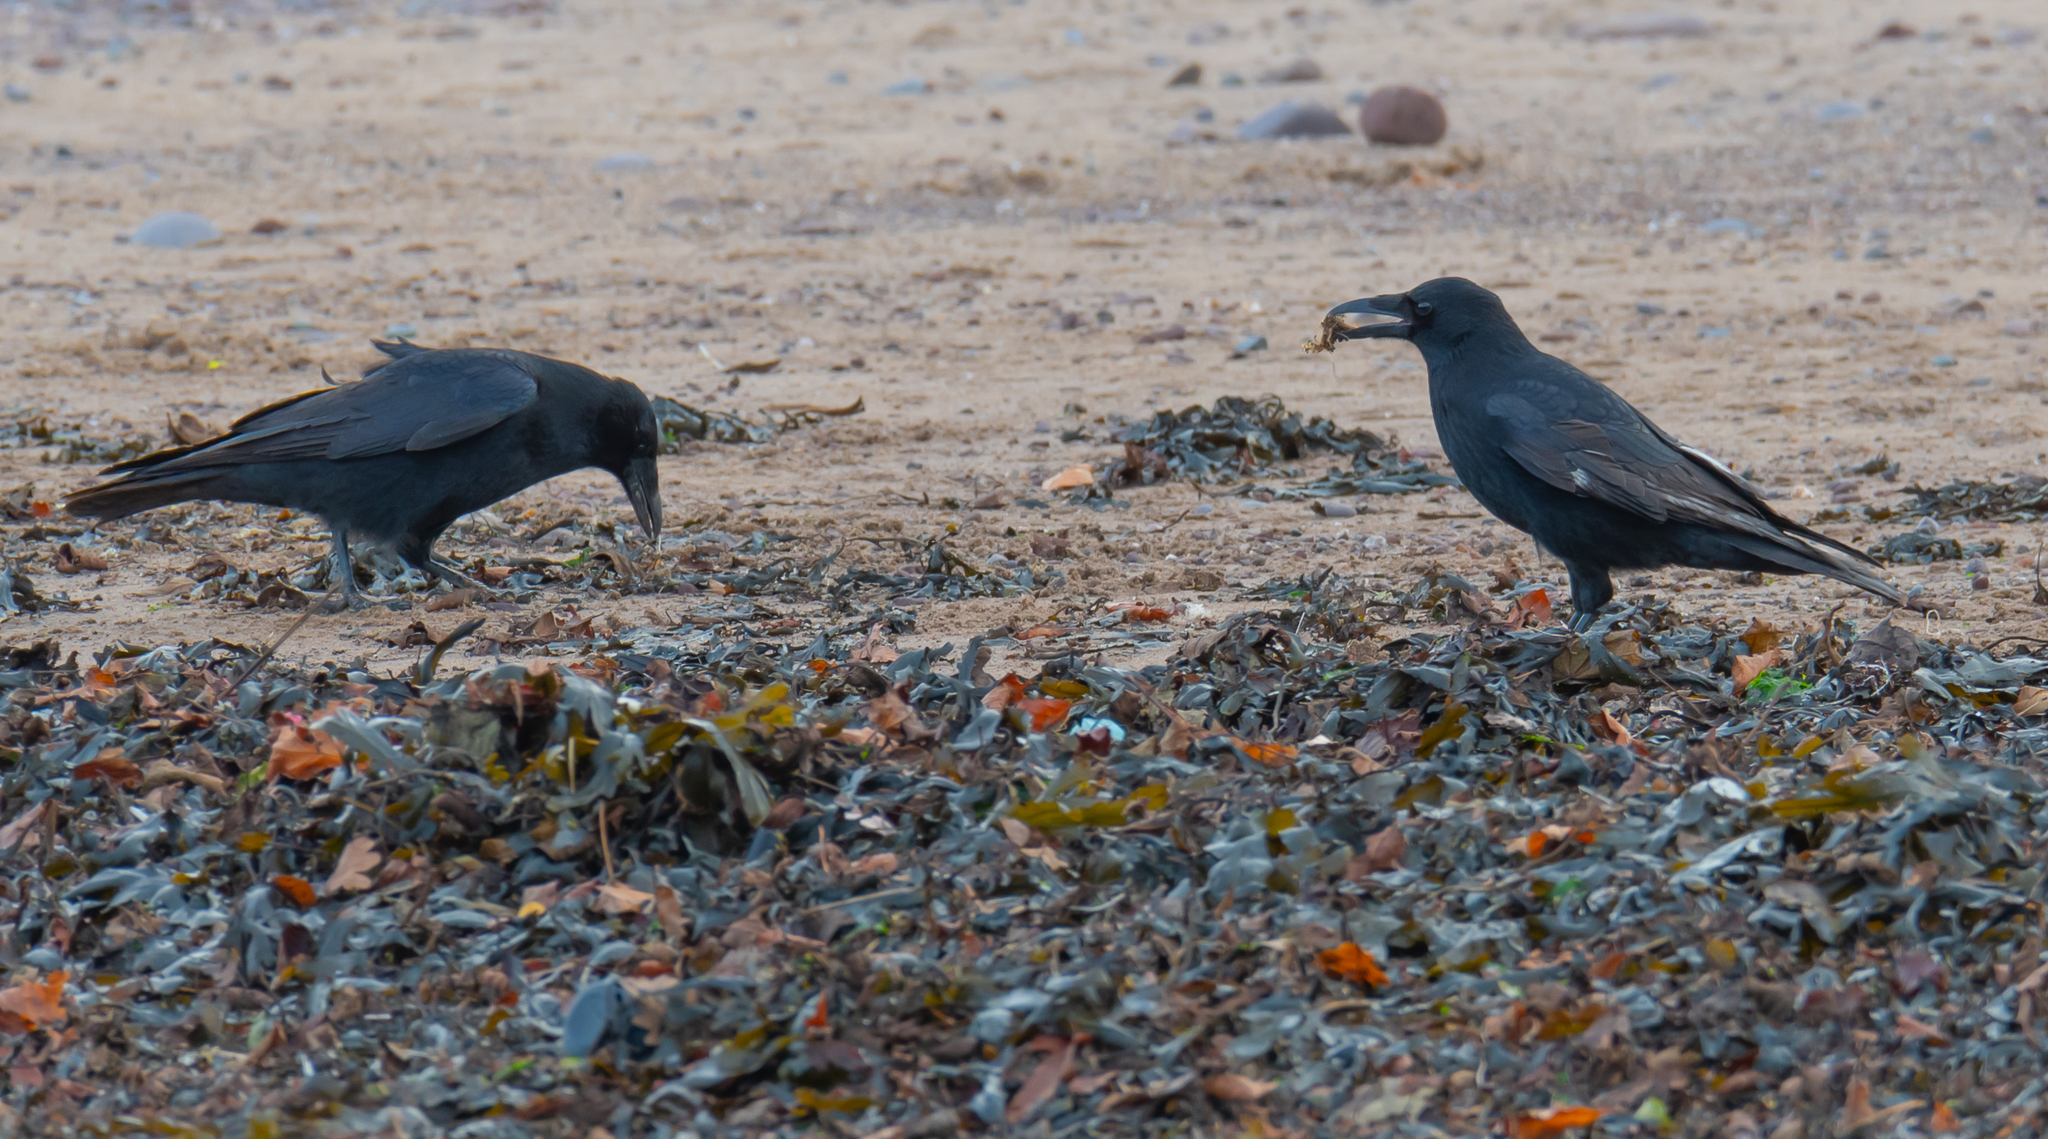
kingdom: Animalia
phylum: Chordata
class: Aves
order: Passeriformes
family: Corvidae
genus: Corvus
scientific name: Corvus corone
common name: Carrion crow
